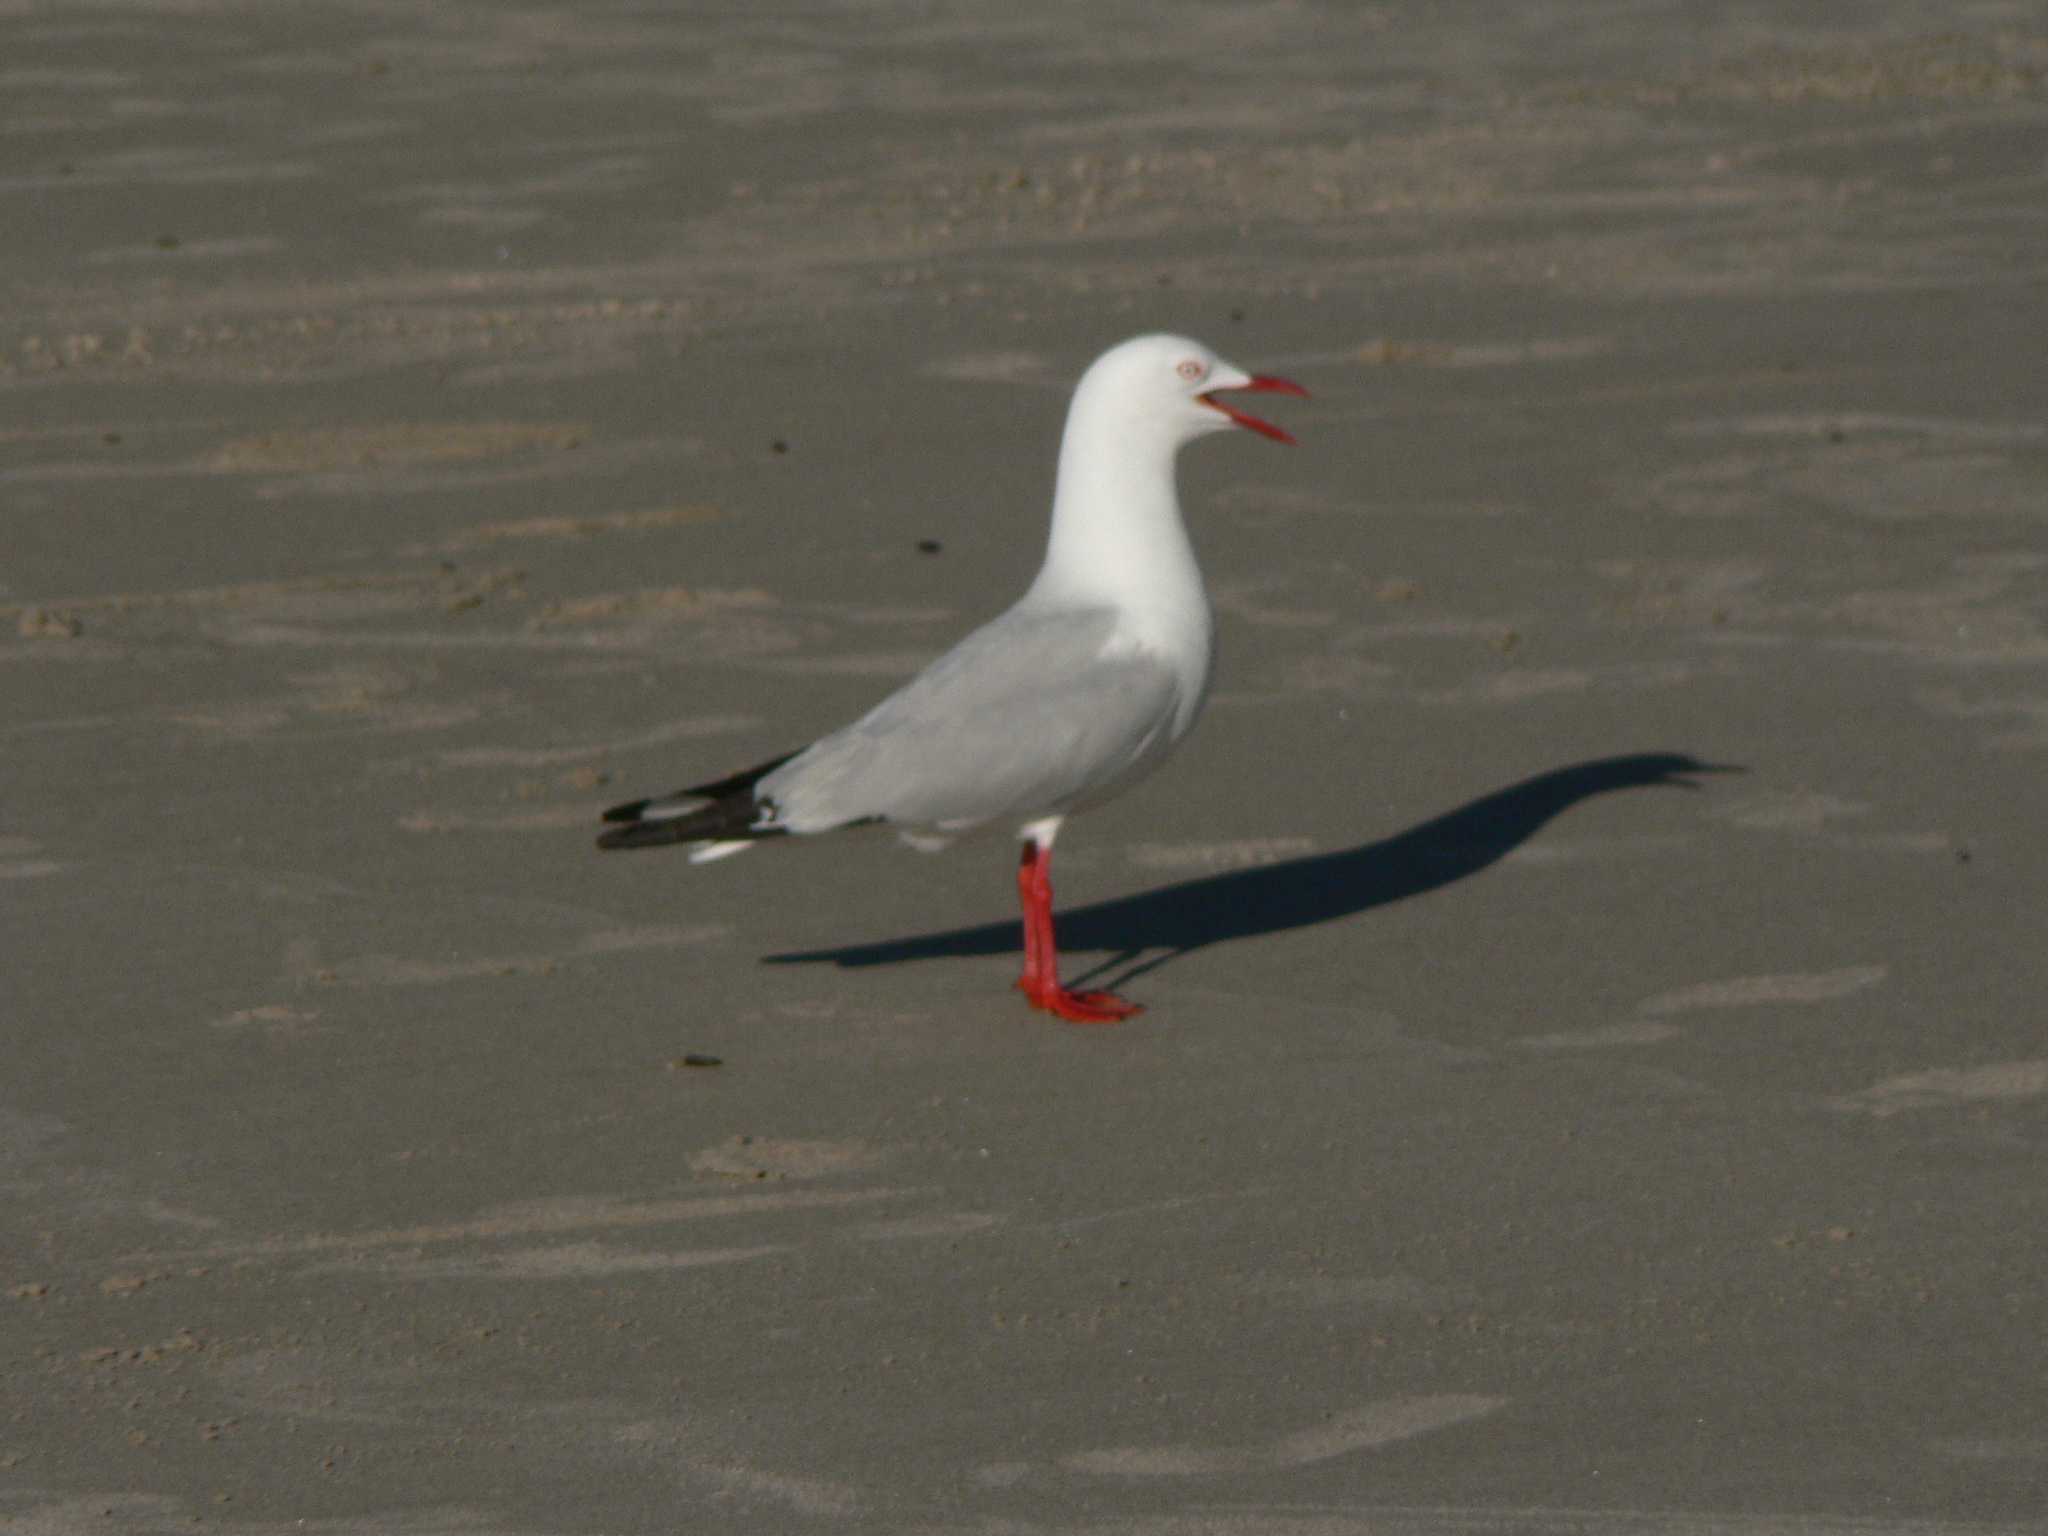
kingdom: Animalia
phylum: Chordata
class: Aves
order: Charadriiformes
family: Laridae
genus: Chroicocephalus
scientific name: Chroicocephalus novaehollandiae
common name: Silver gull
